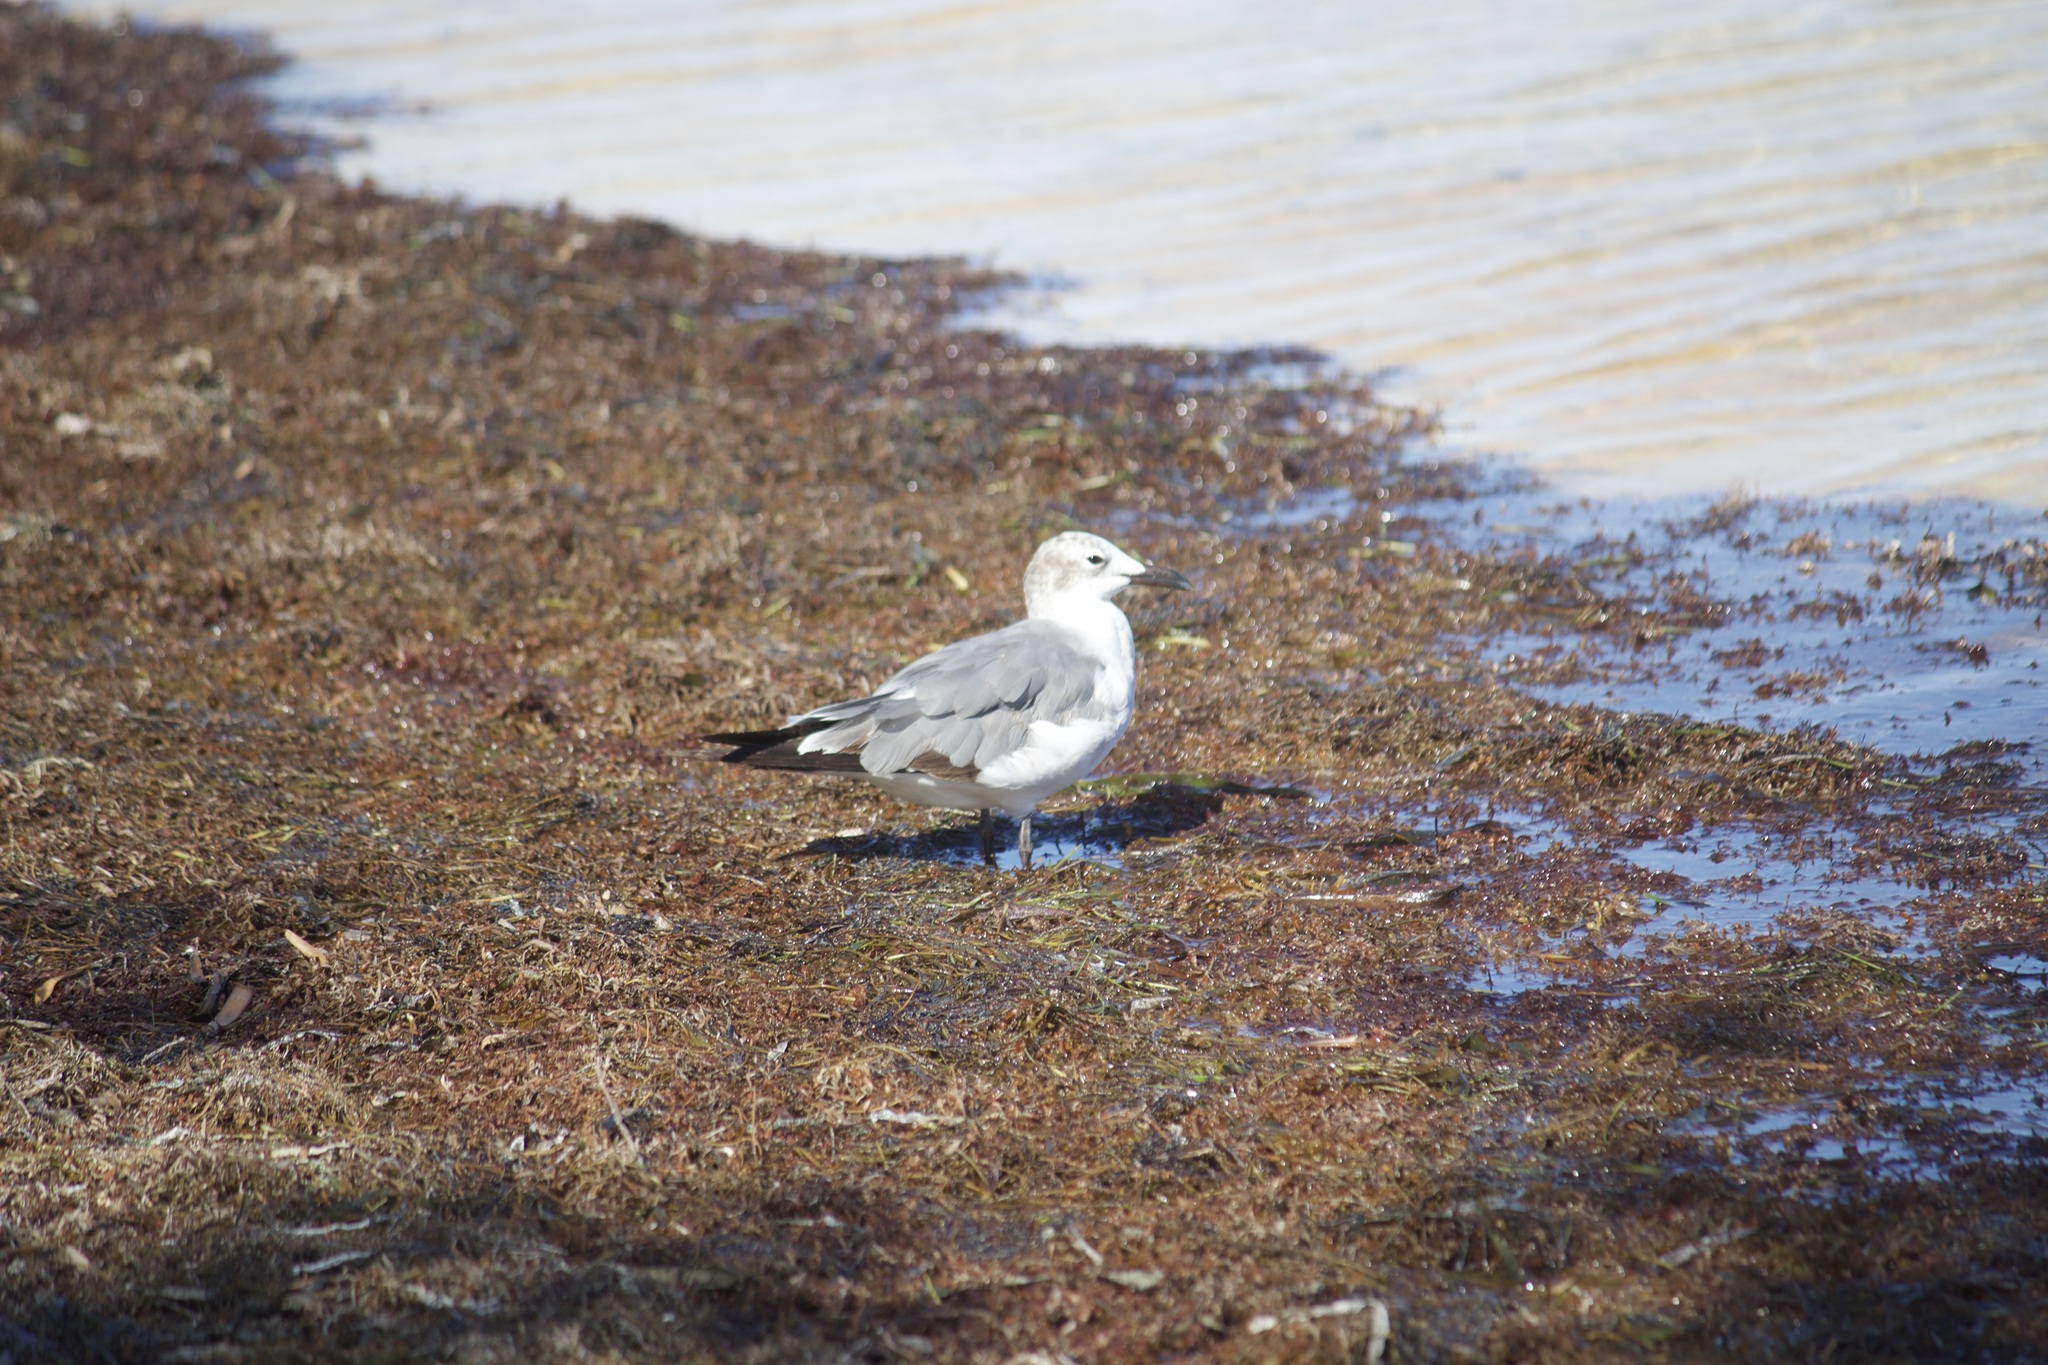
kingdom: Animalia
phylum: Chordata
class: Aves
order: Charadriiformes
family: Laridae
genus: Leucophaeus
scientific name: Leucophaeus atricilla
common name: Laughing gull
